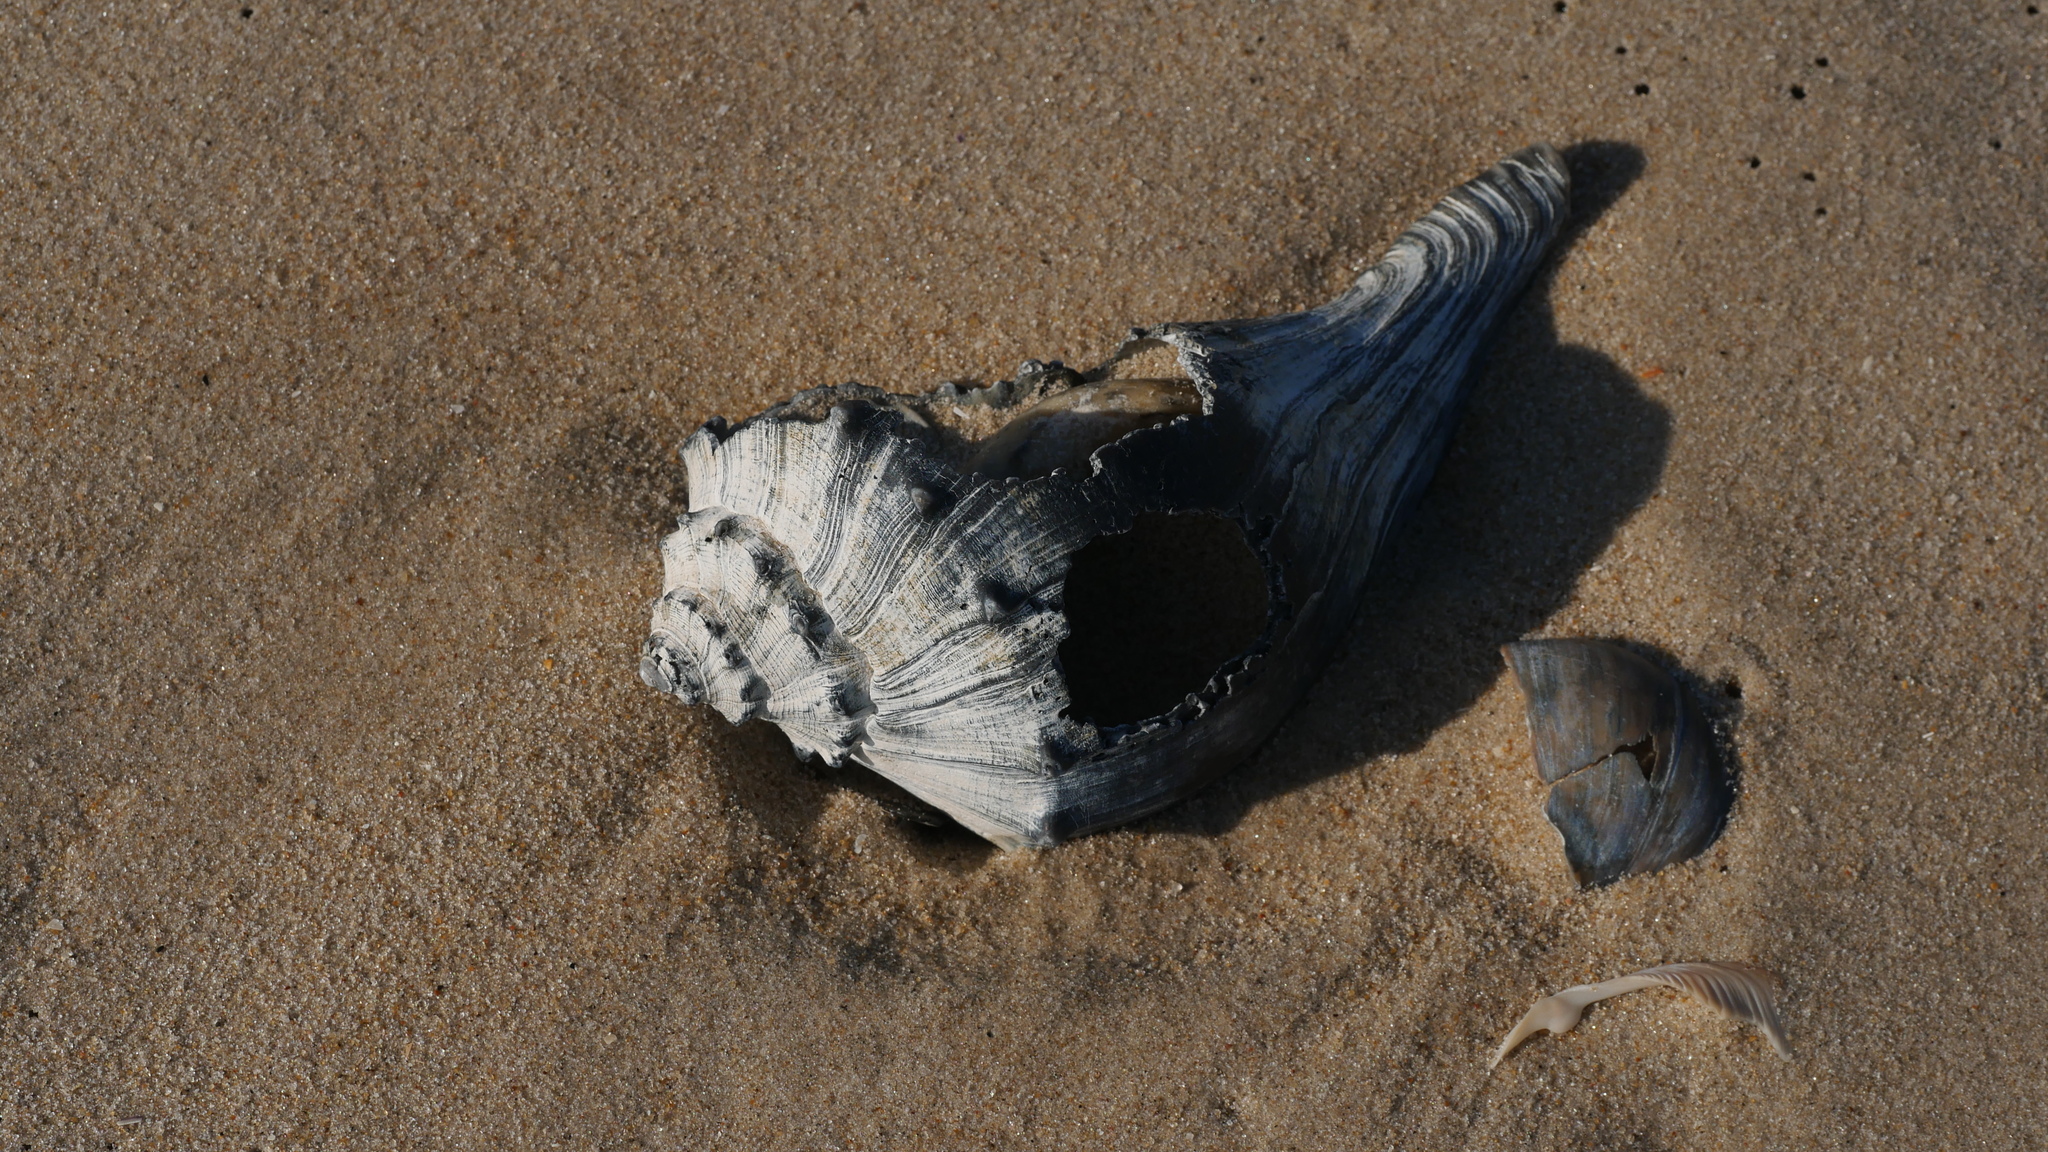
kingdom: Animalia
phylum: Mollusca
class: Gastropoda
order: Neogastropoda
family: Busyconidae
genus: Busycon
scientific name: Busycon carica
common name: Knobbed whelk
